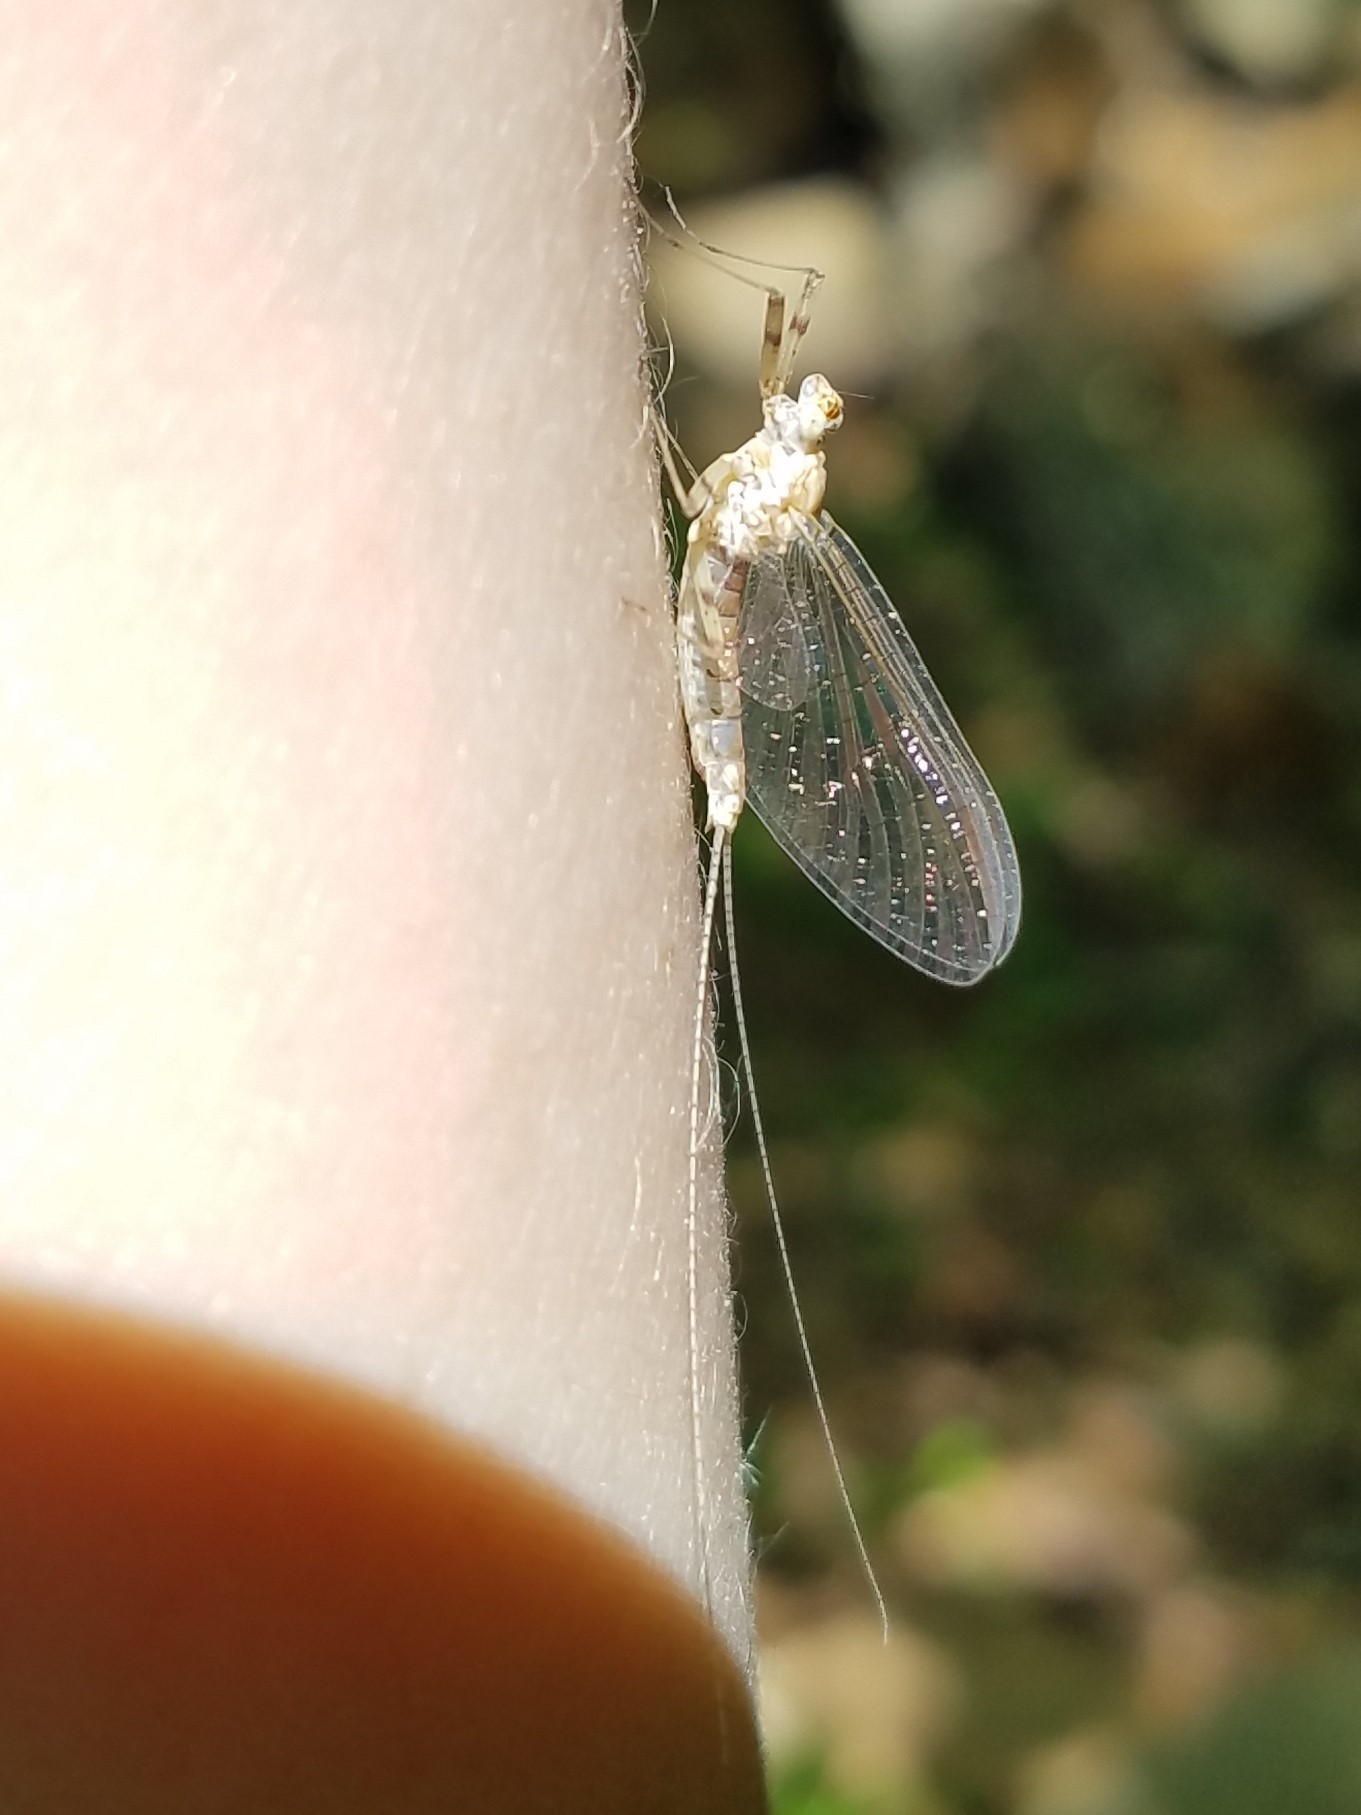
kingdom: Animalia
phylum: Arthropoda
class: Insecta
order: Ephemeroptera
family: Heptageniidae
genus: Maccaffertium
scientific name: Maccaffertium mexicanum
